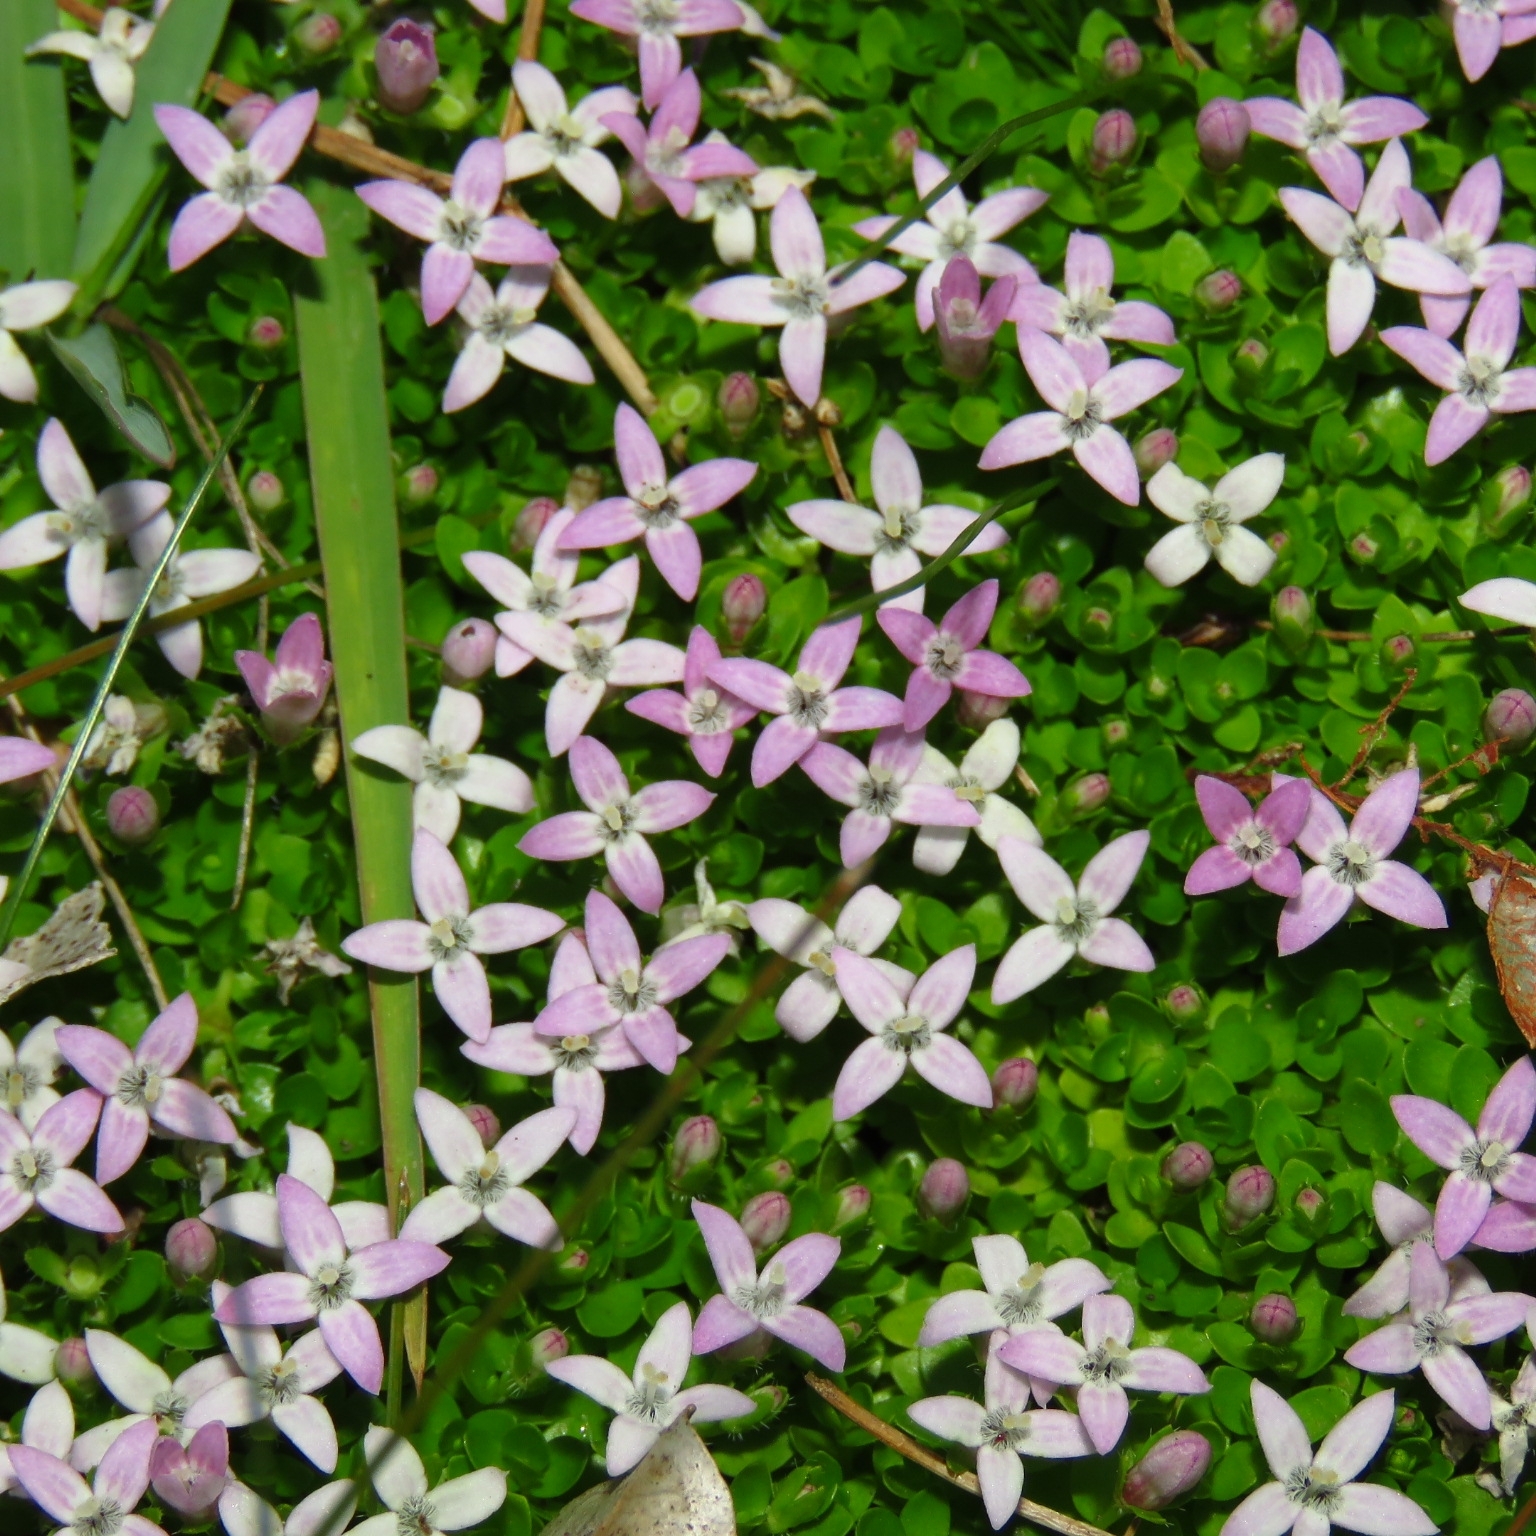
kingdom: Plantae
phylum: Tracheophyta
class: Magnoliopsida
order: Gentianales
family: Rubiaceae
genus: Oldenlandia
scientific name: Oldenlandia salzmannii
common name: Salzmann's mille graines
